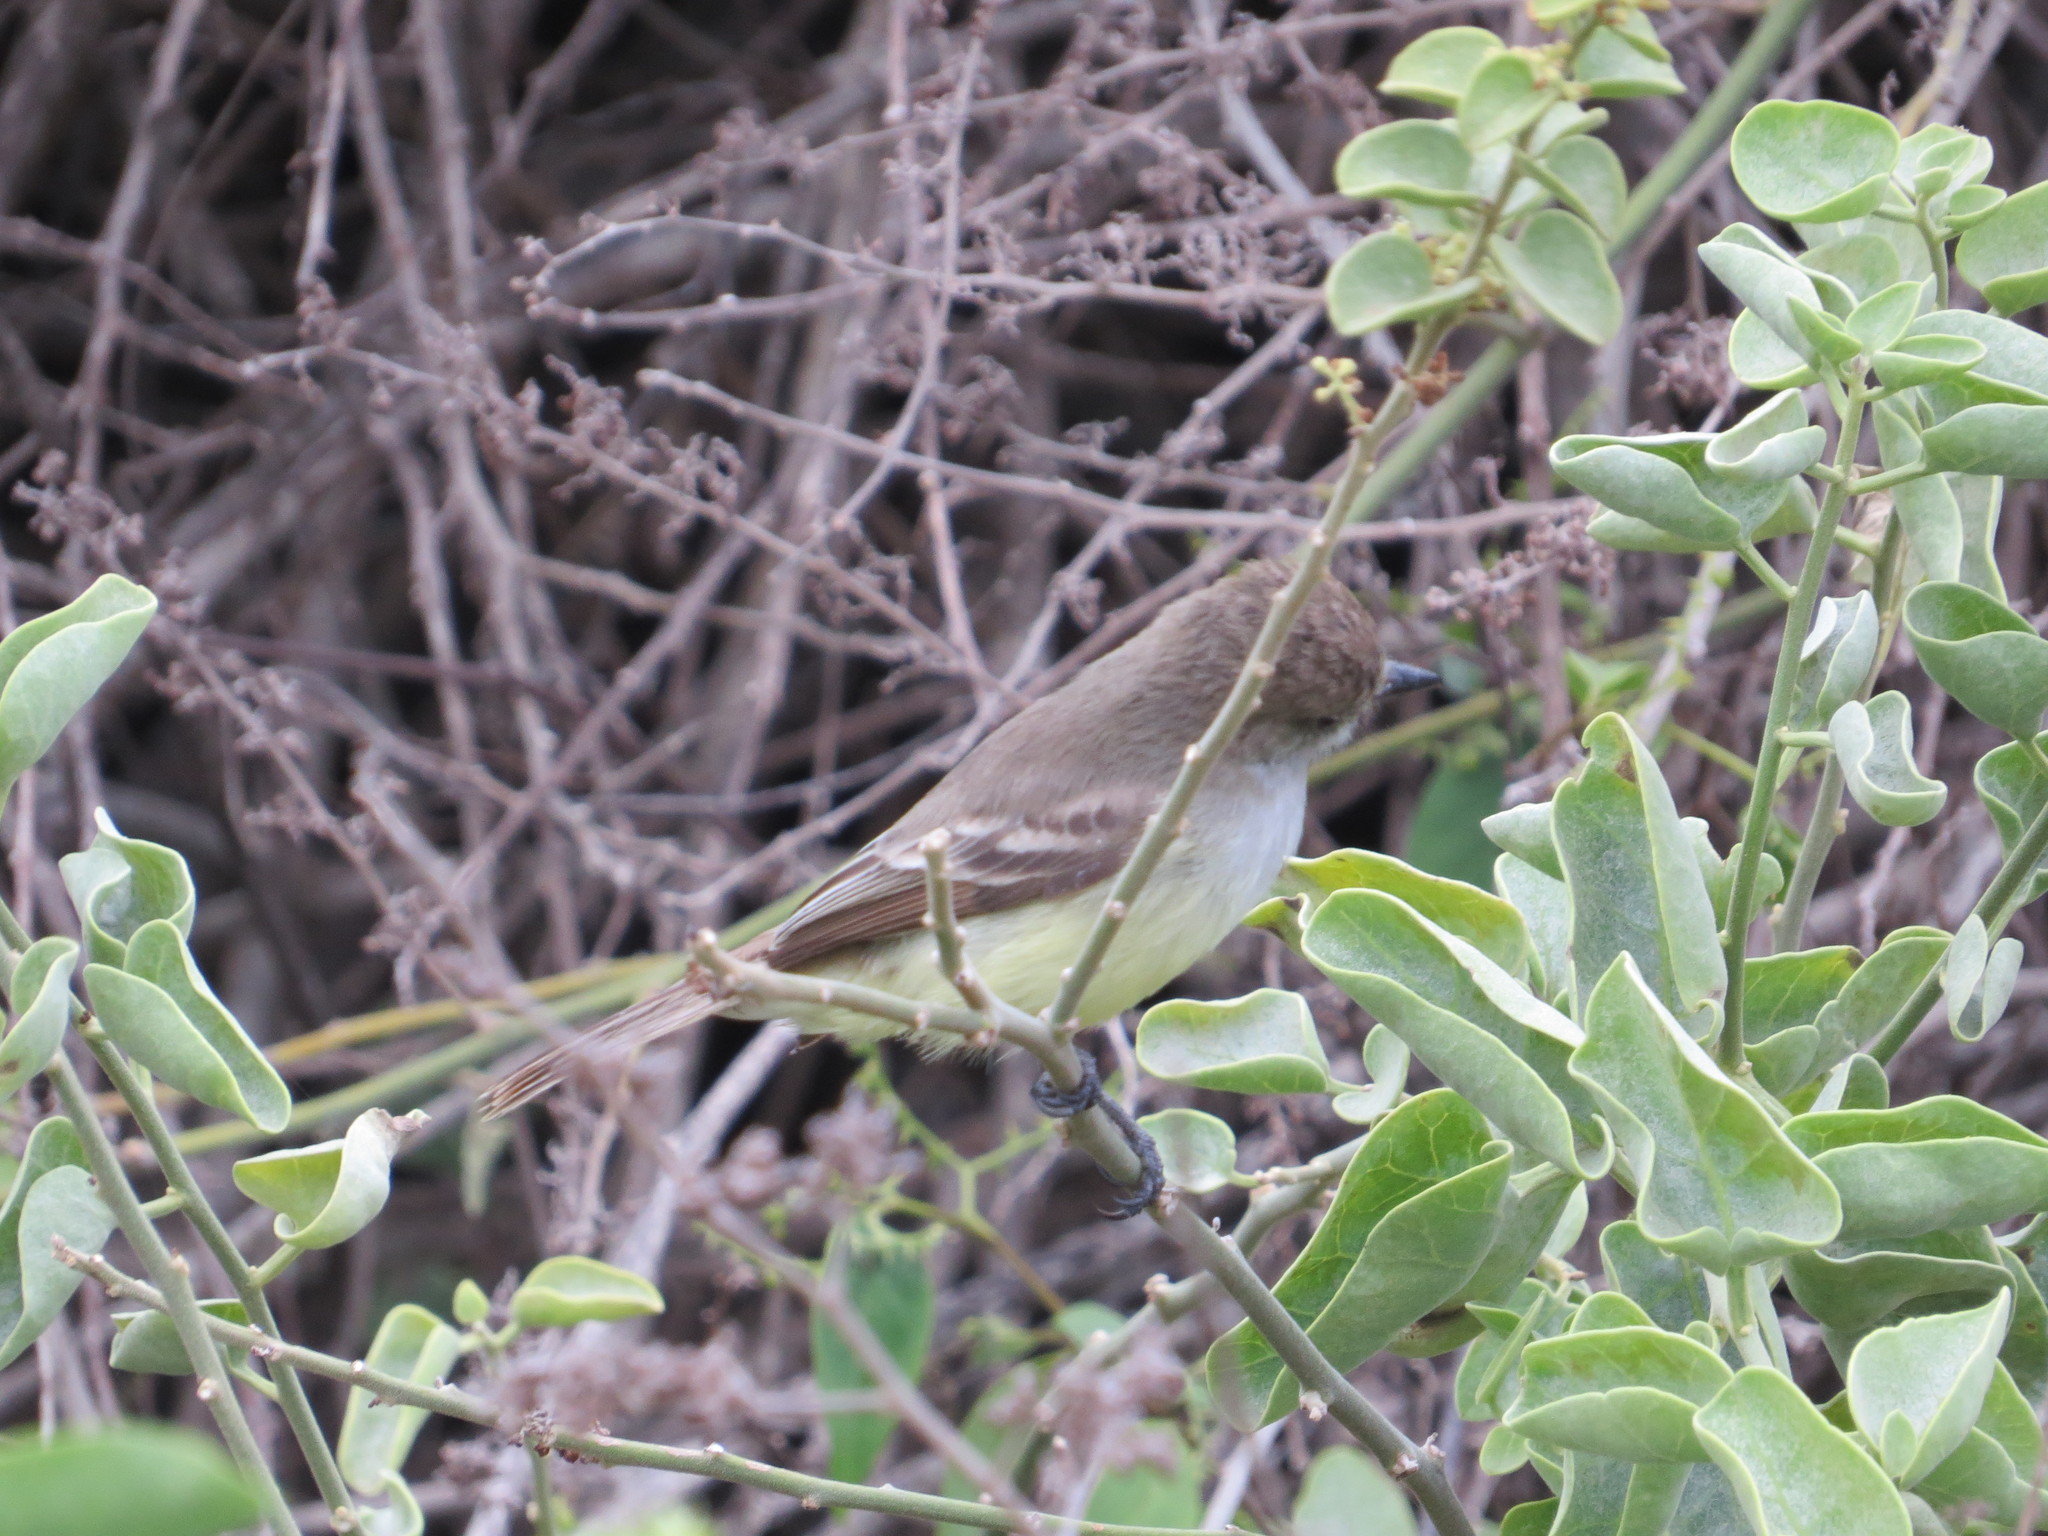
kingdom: Animalia
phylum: Chordata
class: Aves
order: Passeriformes
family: Tyrannidae
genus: Myiarchus
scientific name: Myiarchus magnirostris
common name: Galapagos flycatcher
